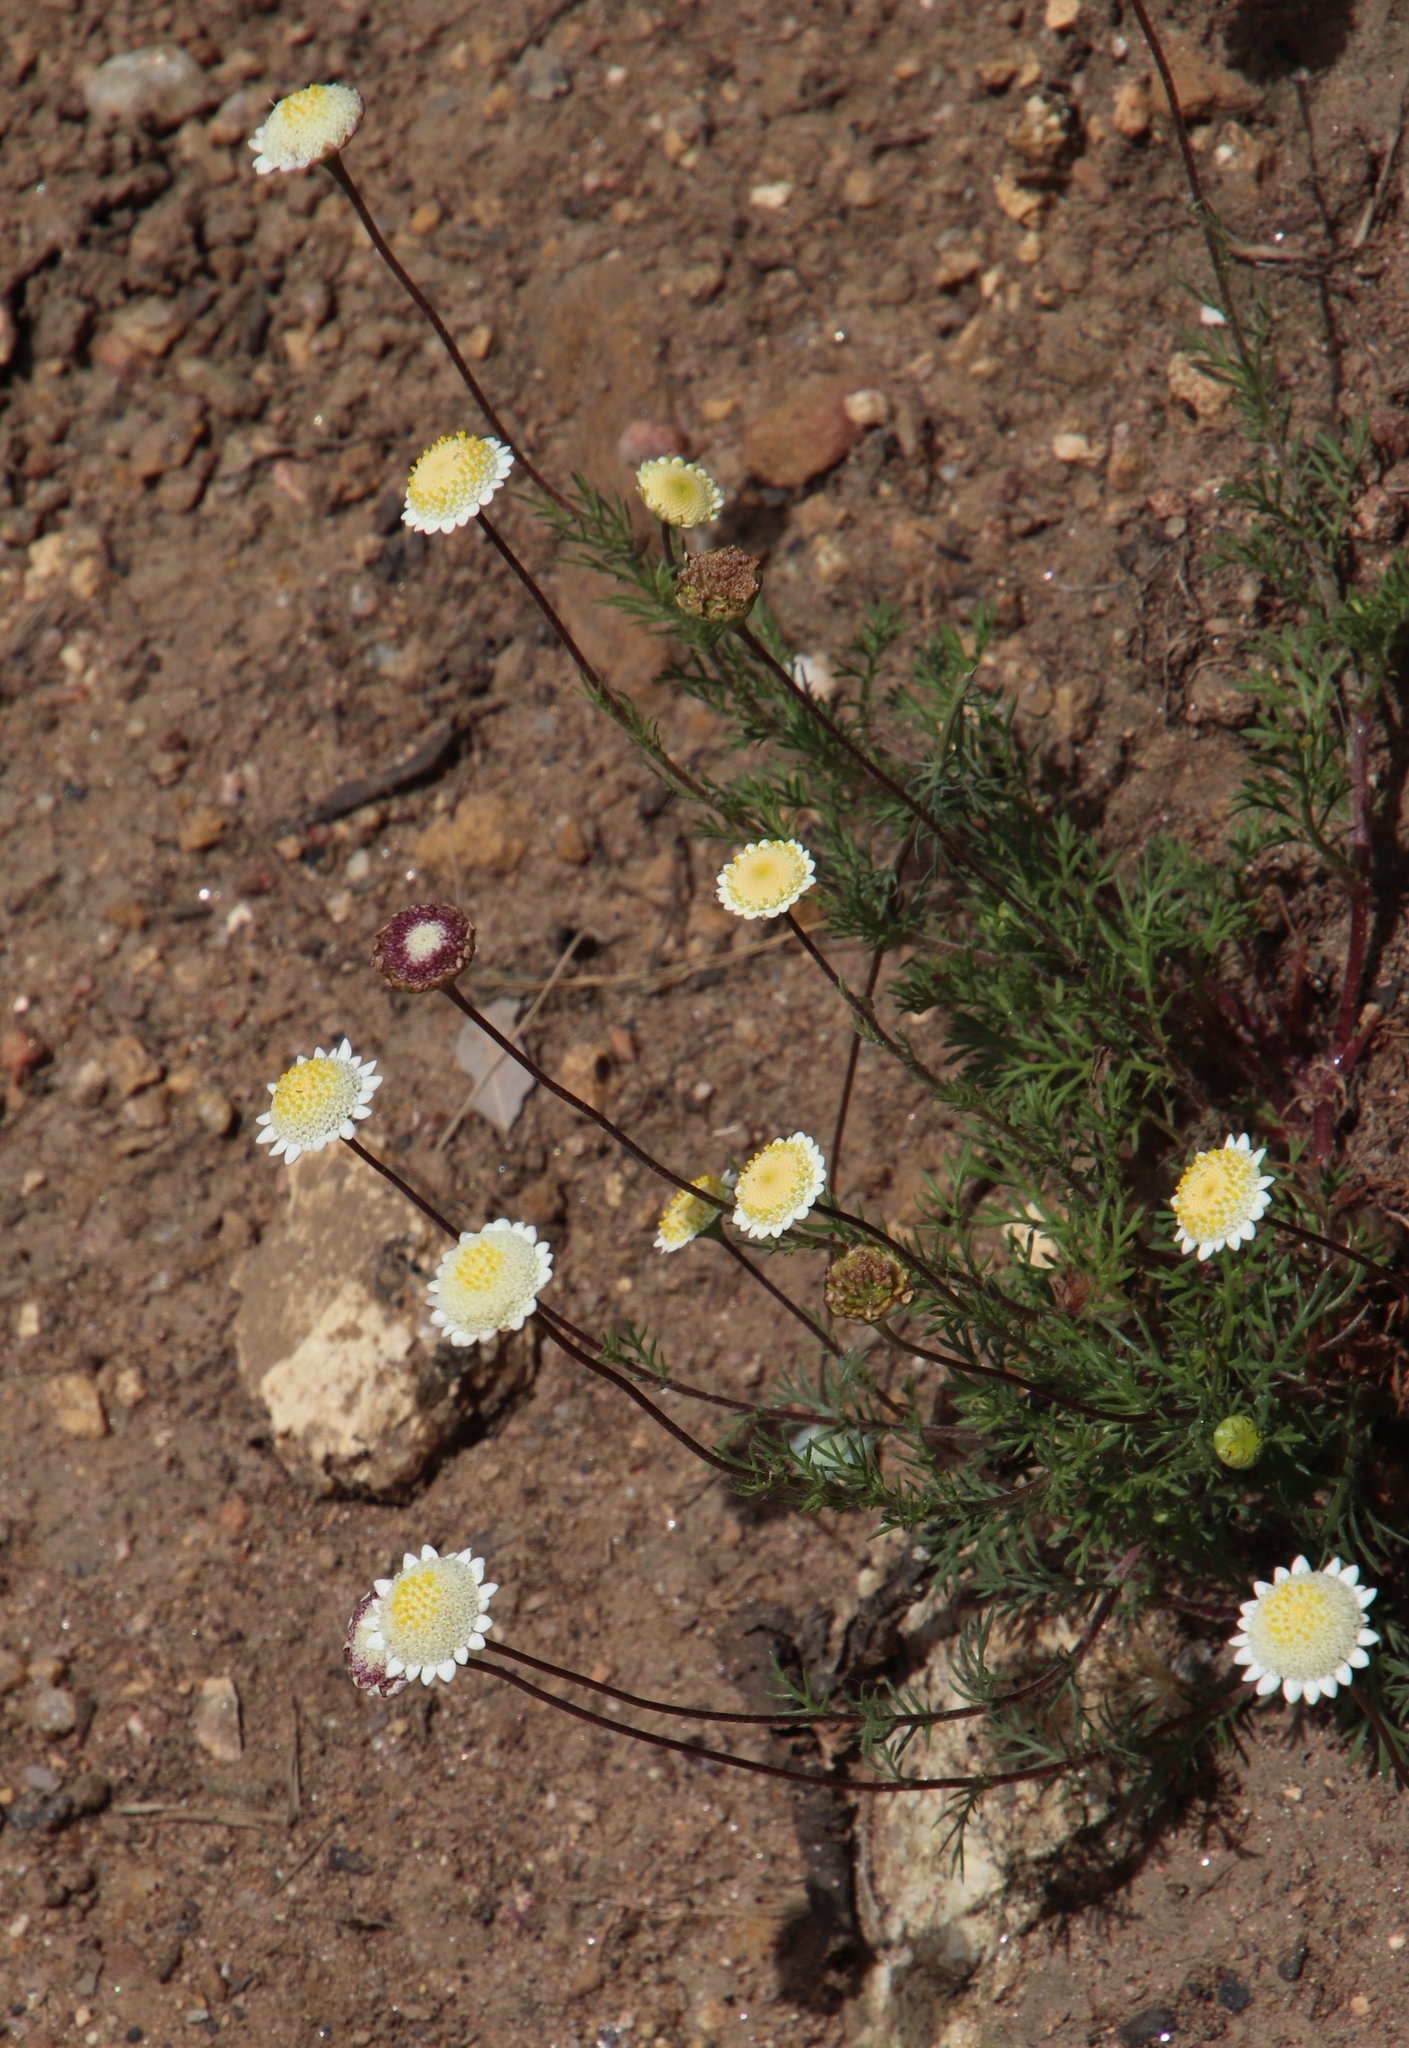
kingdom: Plantae
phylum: Tracheophyta
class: Magnoliopsida
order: Asterales
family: Asteraceae
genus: Cotula
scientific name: Cotula turbinata
